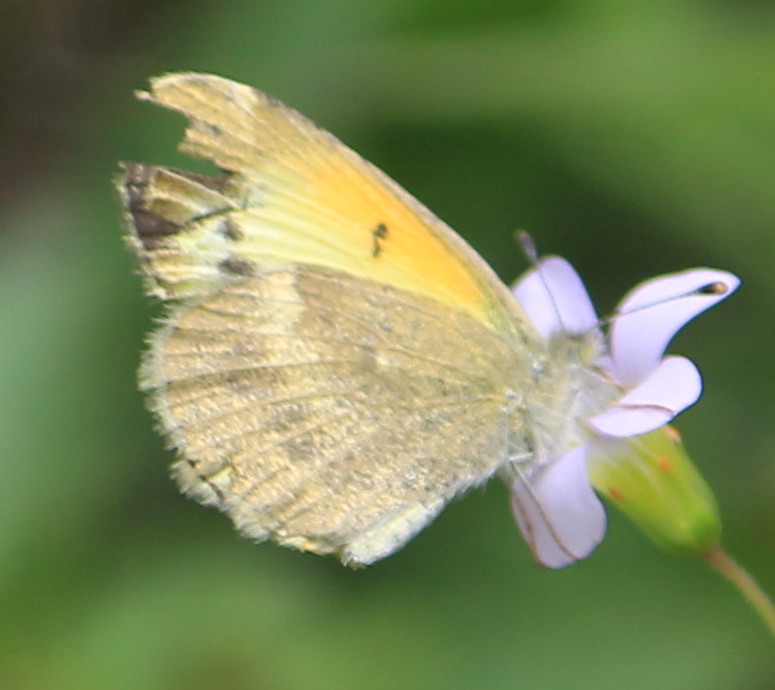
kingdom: Animalia
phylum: Arthropoda
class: Insecta
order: Lepidoptera
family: Pieridae
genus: Nathalis
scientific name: Nathalis iole
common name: Dainty sulphur
